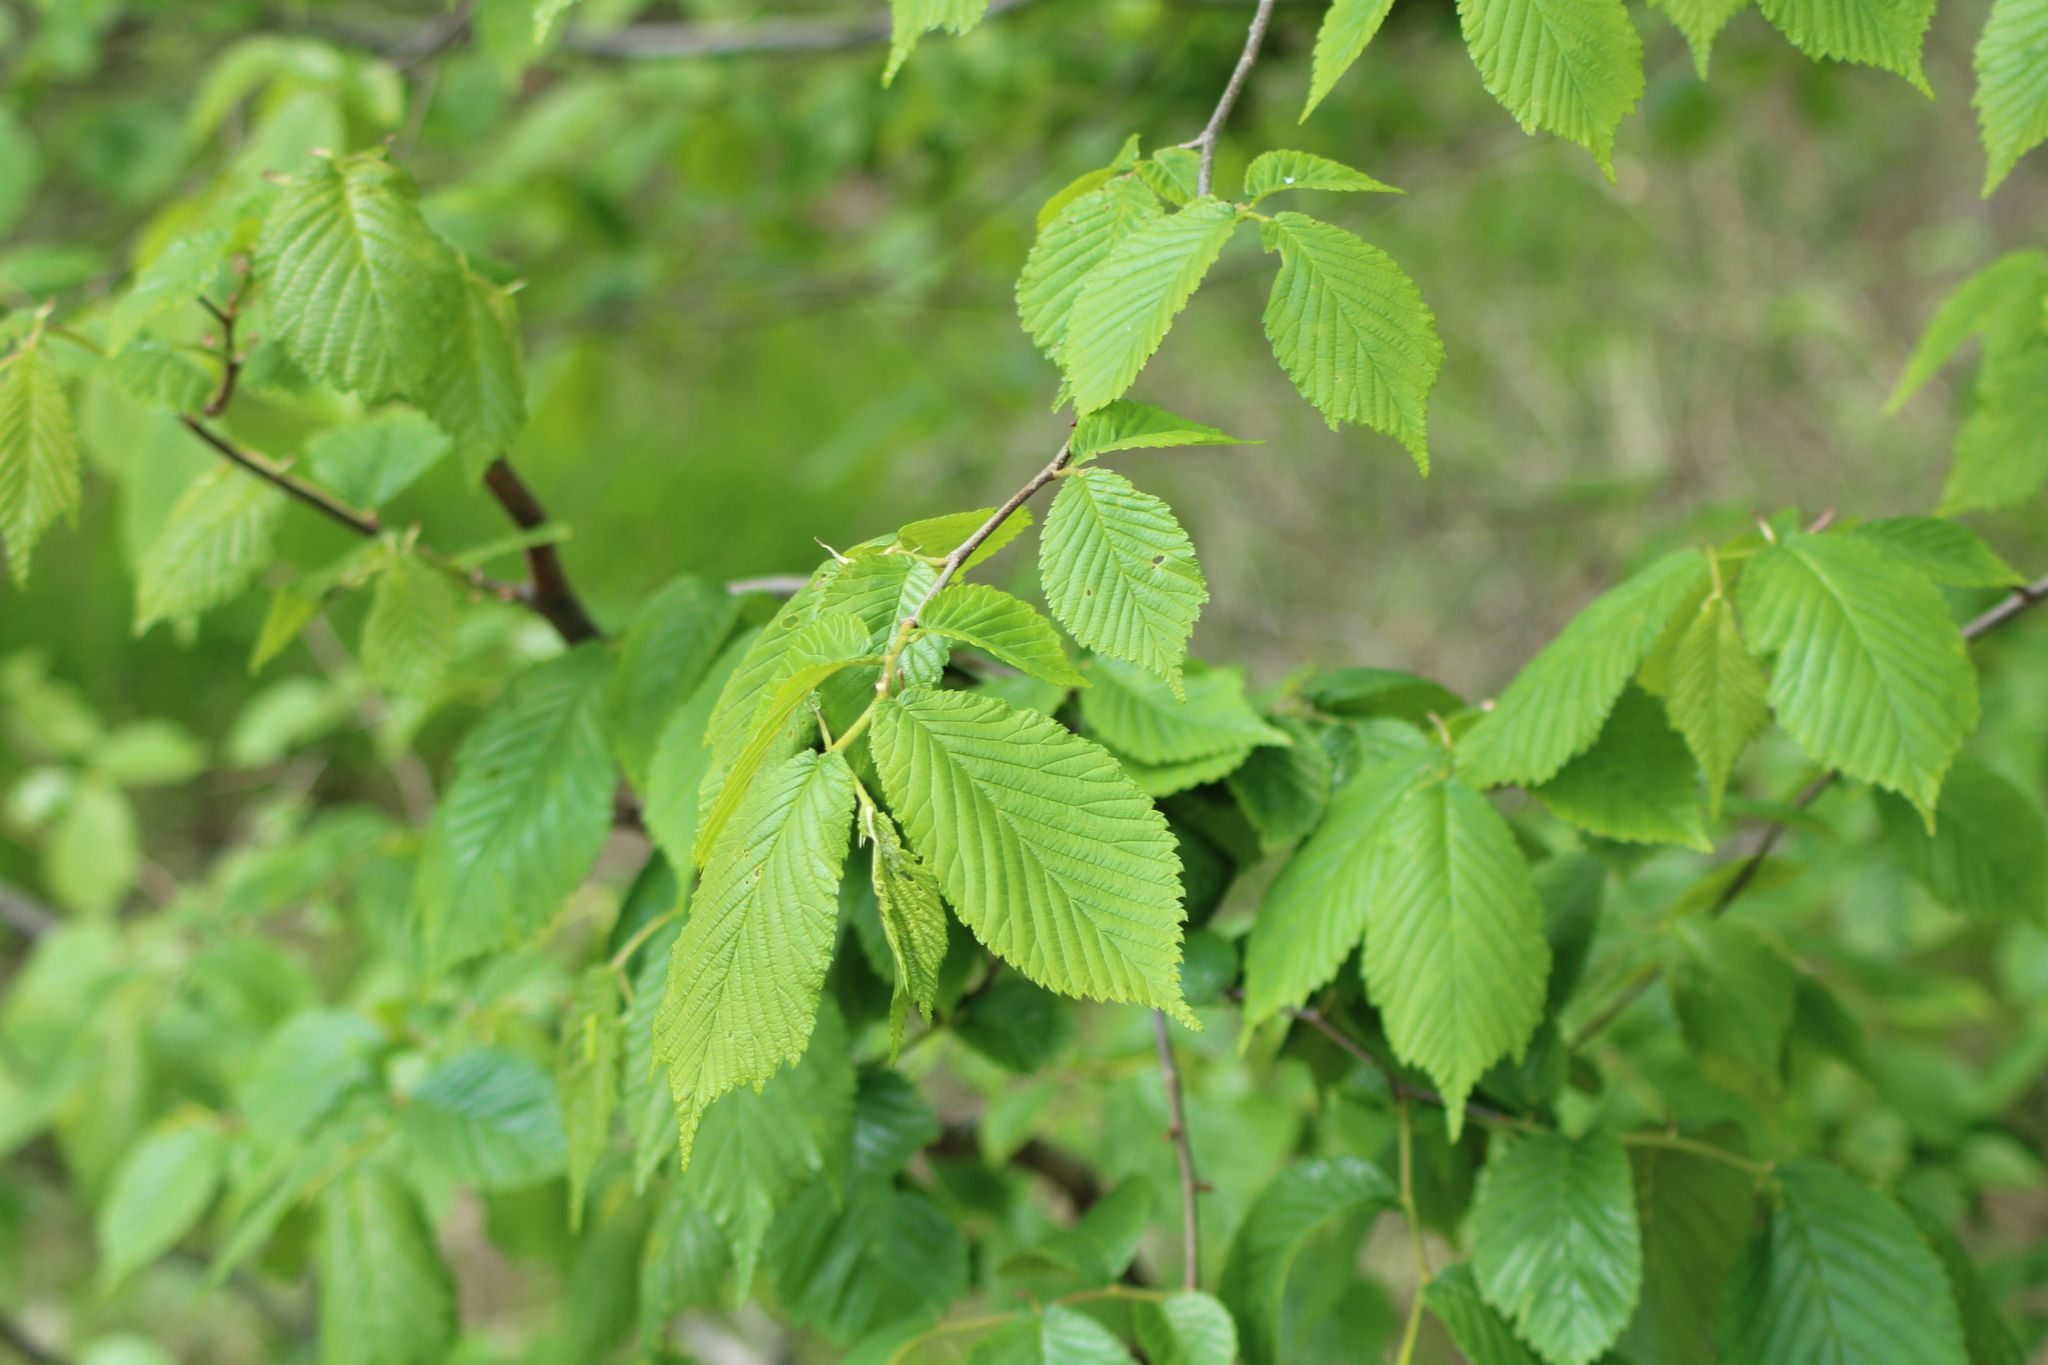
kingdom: Plantae
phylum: Tracheophyta
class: Magnoliopsida
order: Rosales
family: Ulmaceae
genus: Ulmus
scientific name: Ulmus glabra
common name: Wych elm
